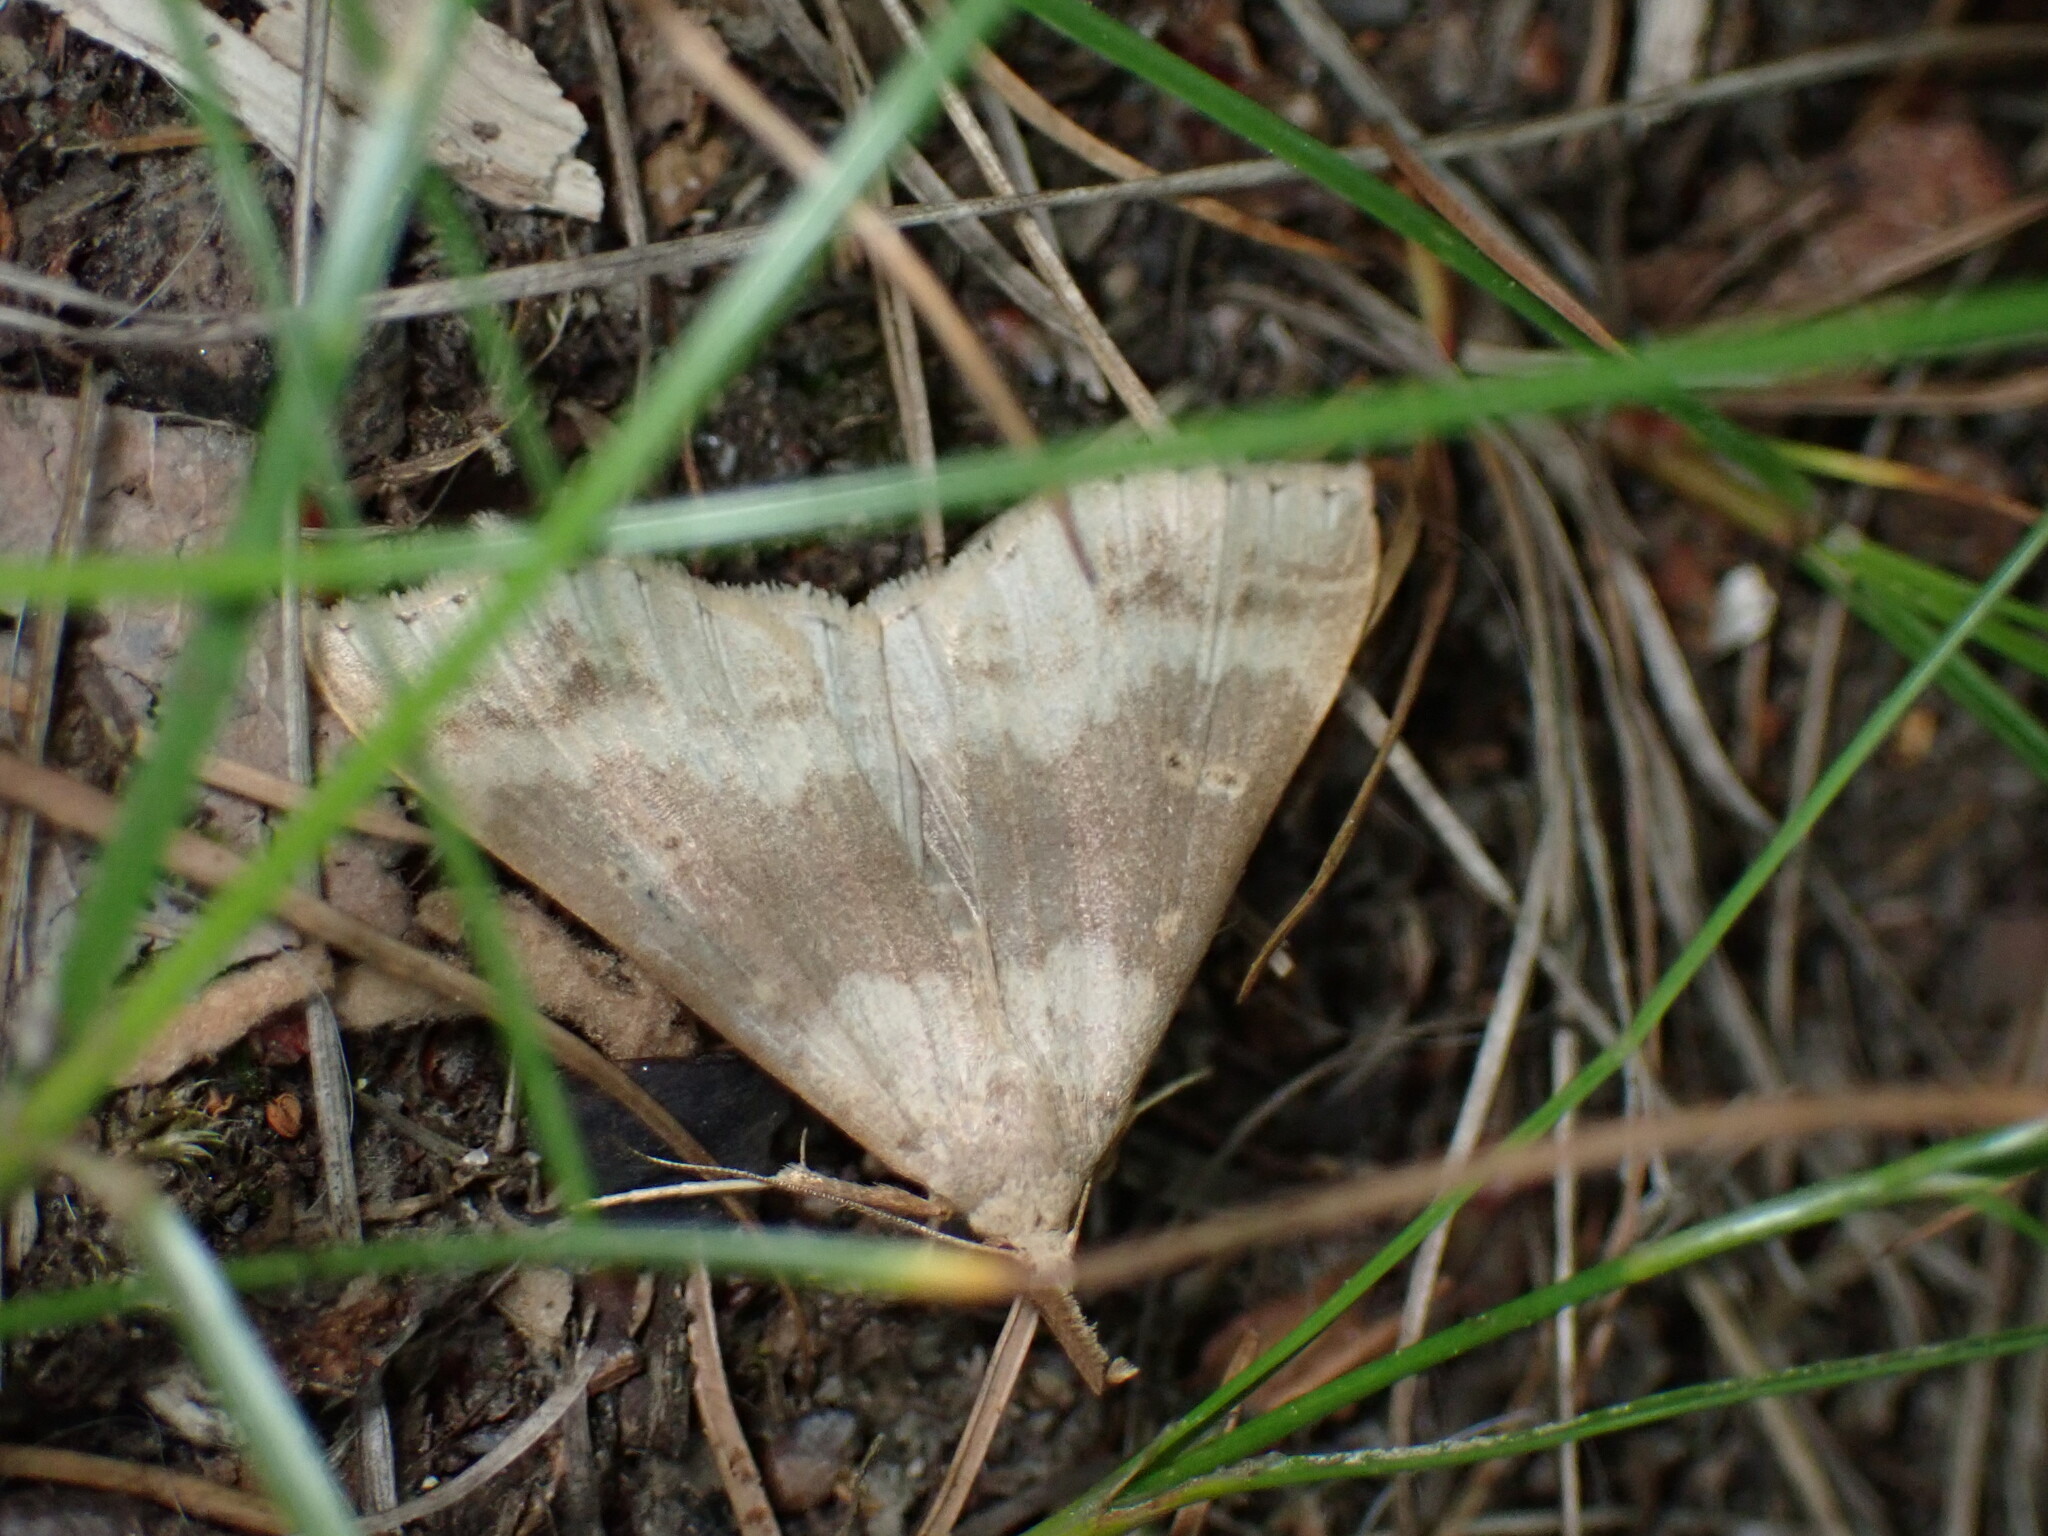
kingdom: Animalia
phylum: Arthropoda
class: Insecta
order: Lepidoptera
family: Erebidae
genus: Renia
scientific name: Renia discoloralis
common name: Discolored renia moth
